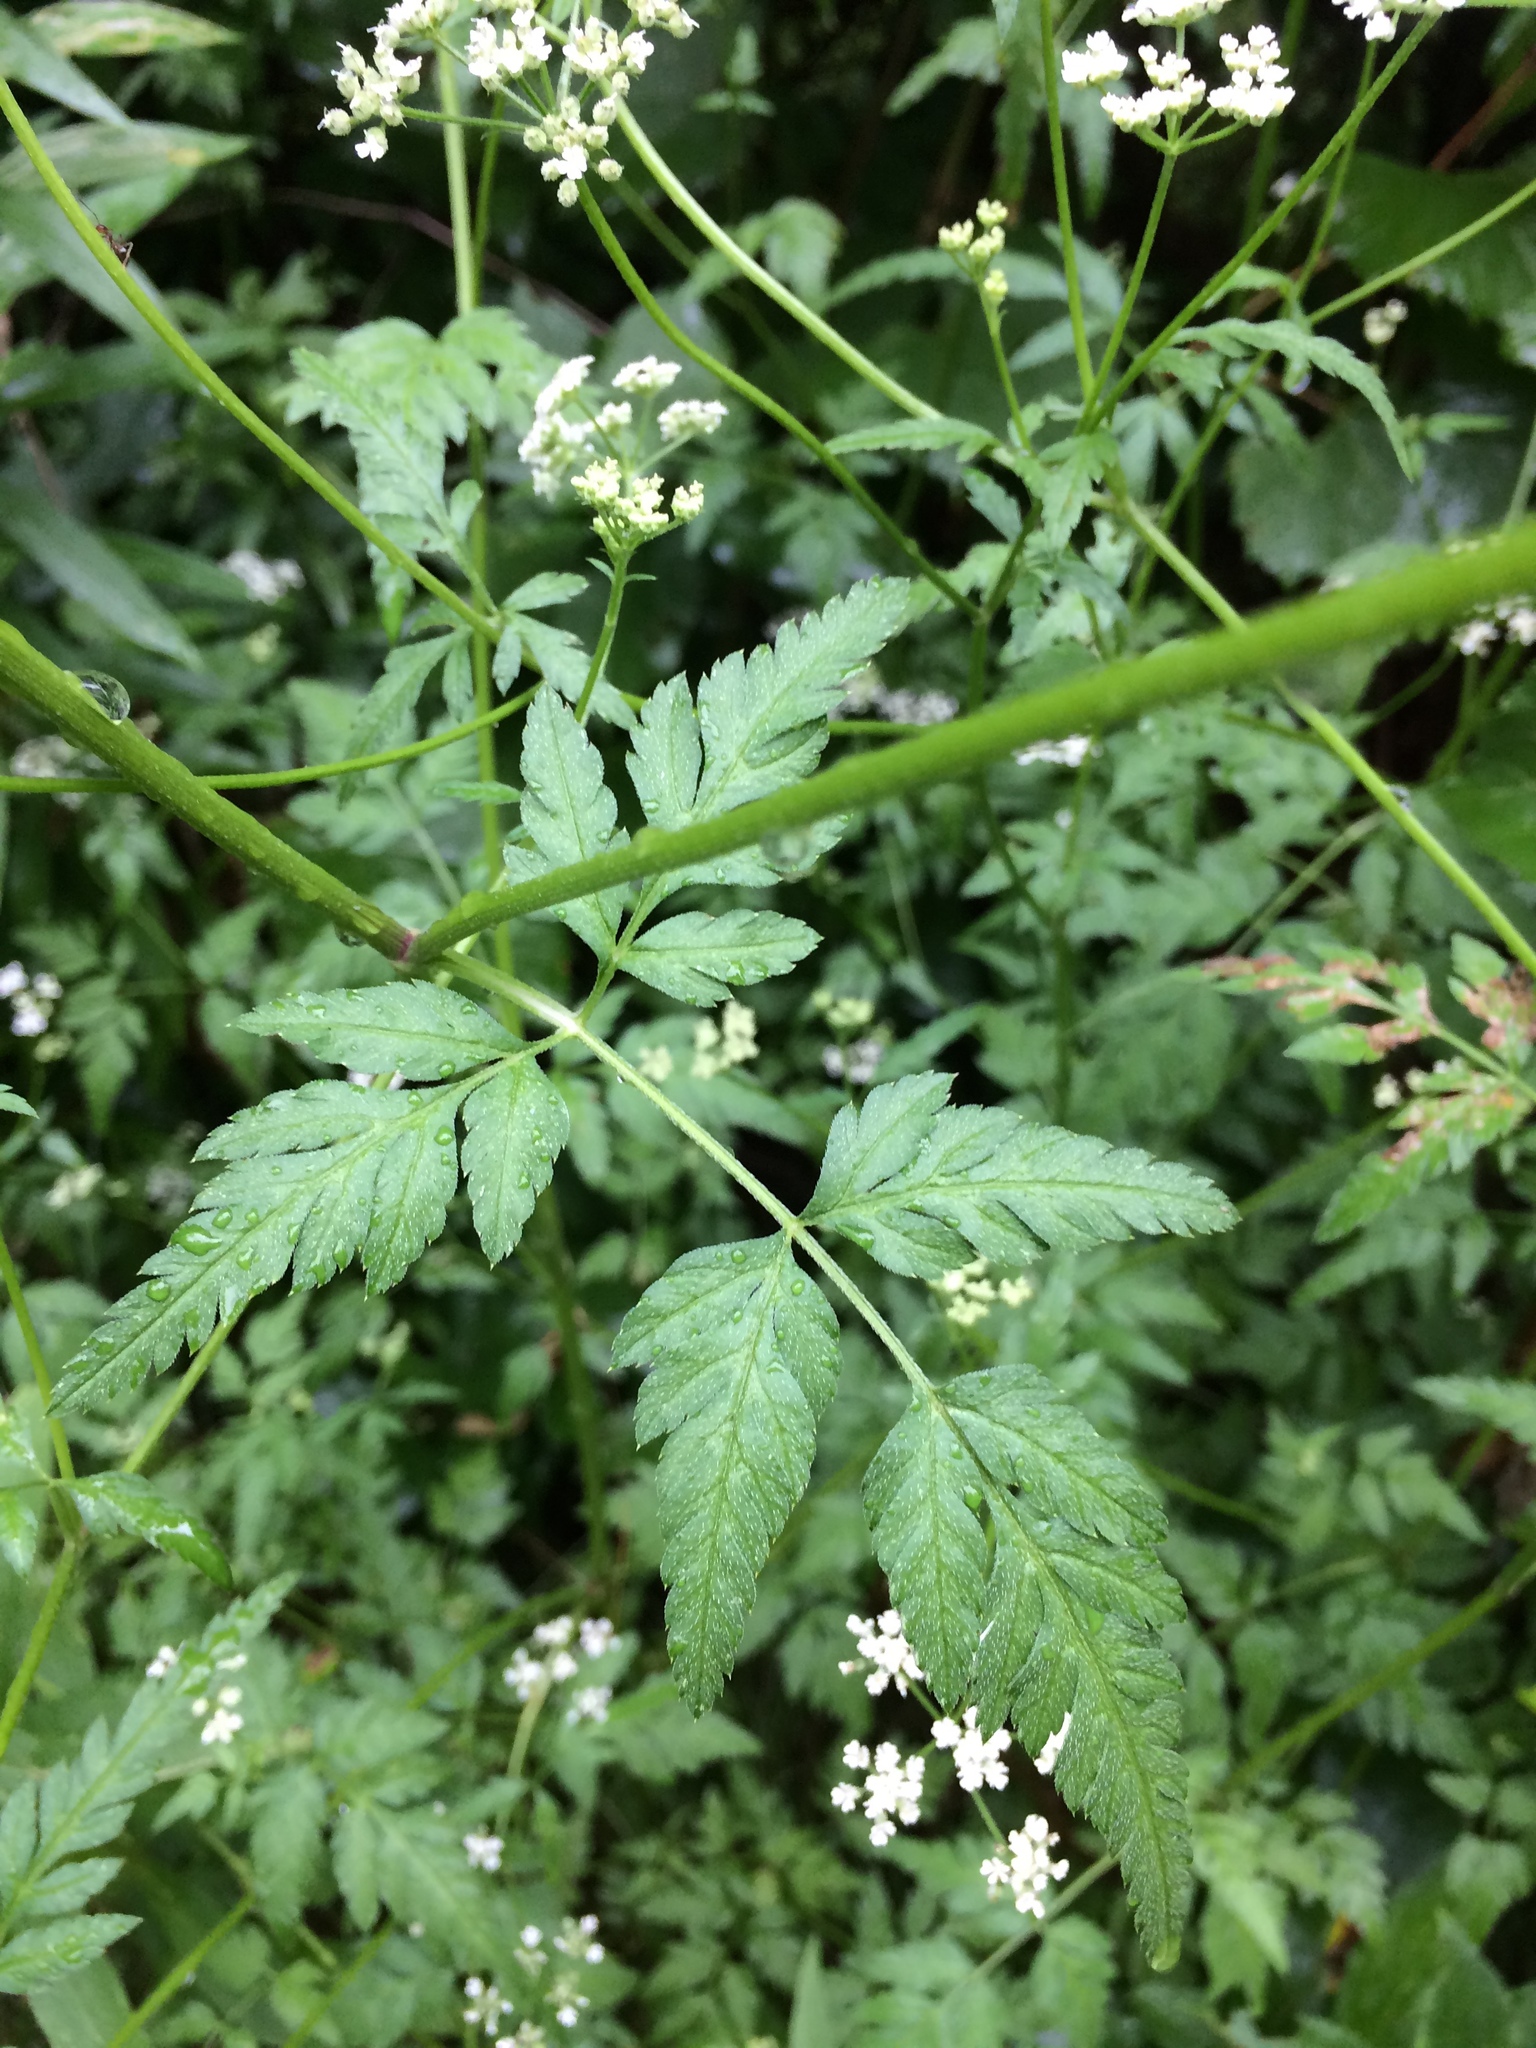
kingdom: Plantae
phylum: Tracheophyta
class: Magnoliopsida
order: Apiales
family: Apiaceae
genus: Torilis
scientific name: Torilis arvensis
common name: Spreading hedge-parsley
